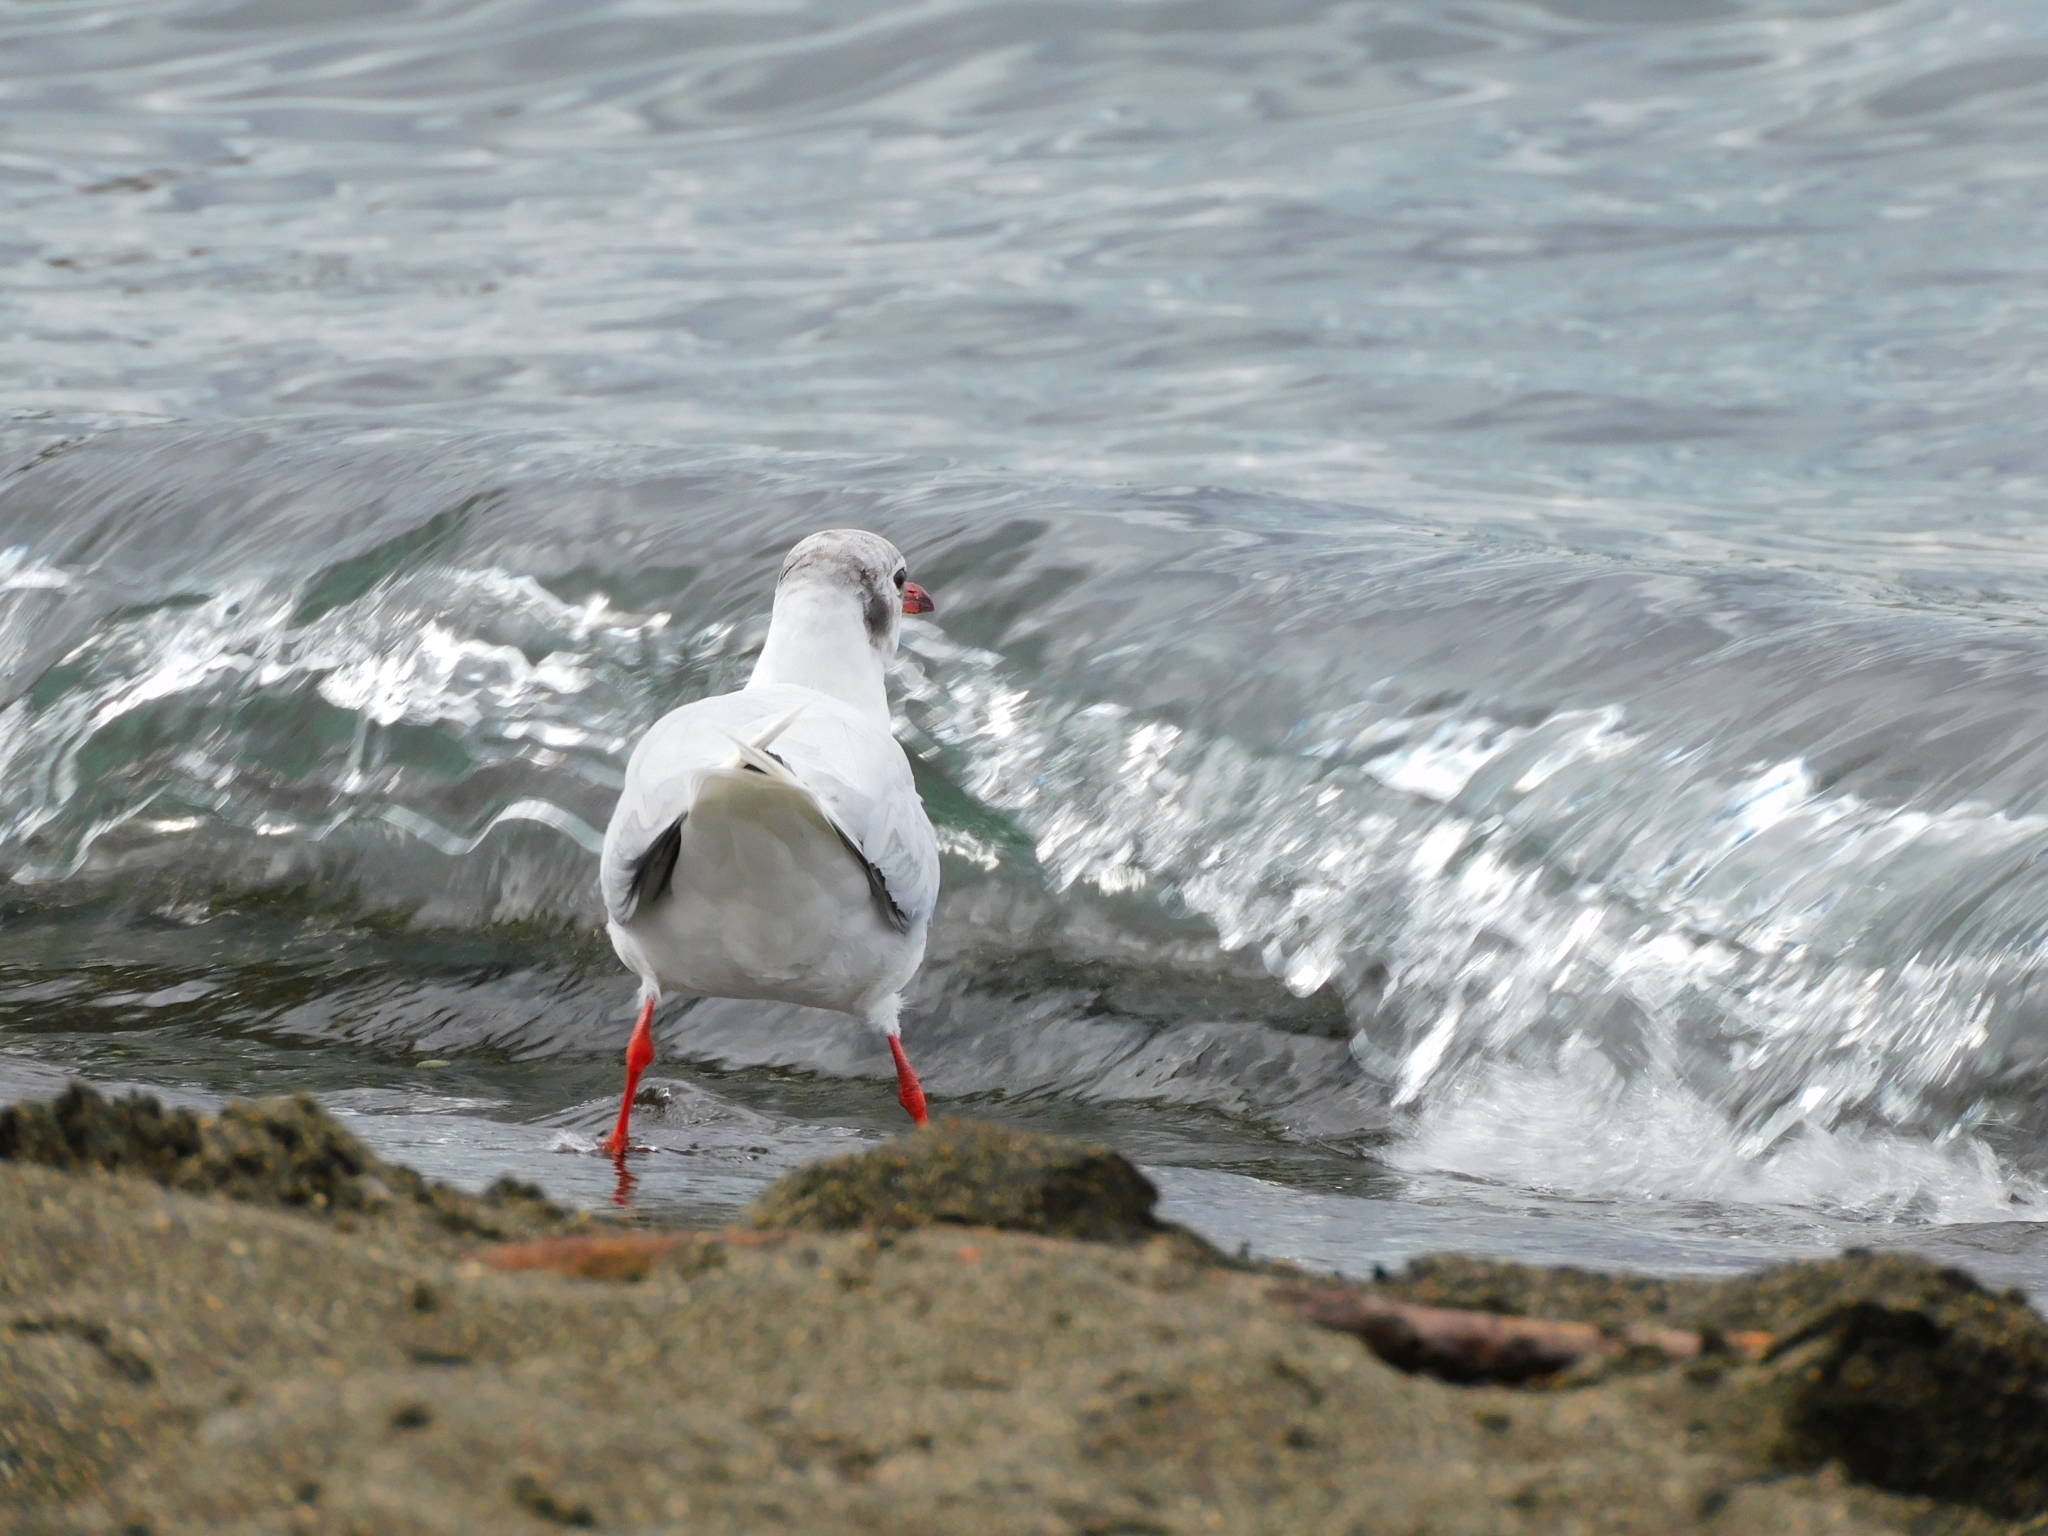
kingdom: Animalia
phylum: Chordata
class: Aves
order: Charadriiformes
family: Laridae
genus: Chroicocephalus
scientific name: Chroicocephalus maculipennis
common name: Brown-hooded gull
